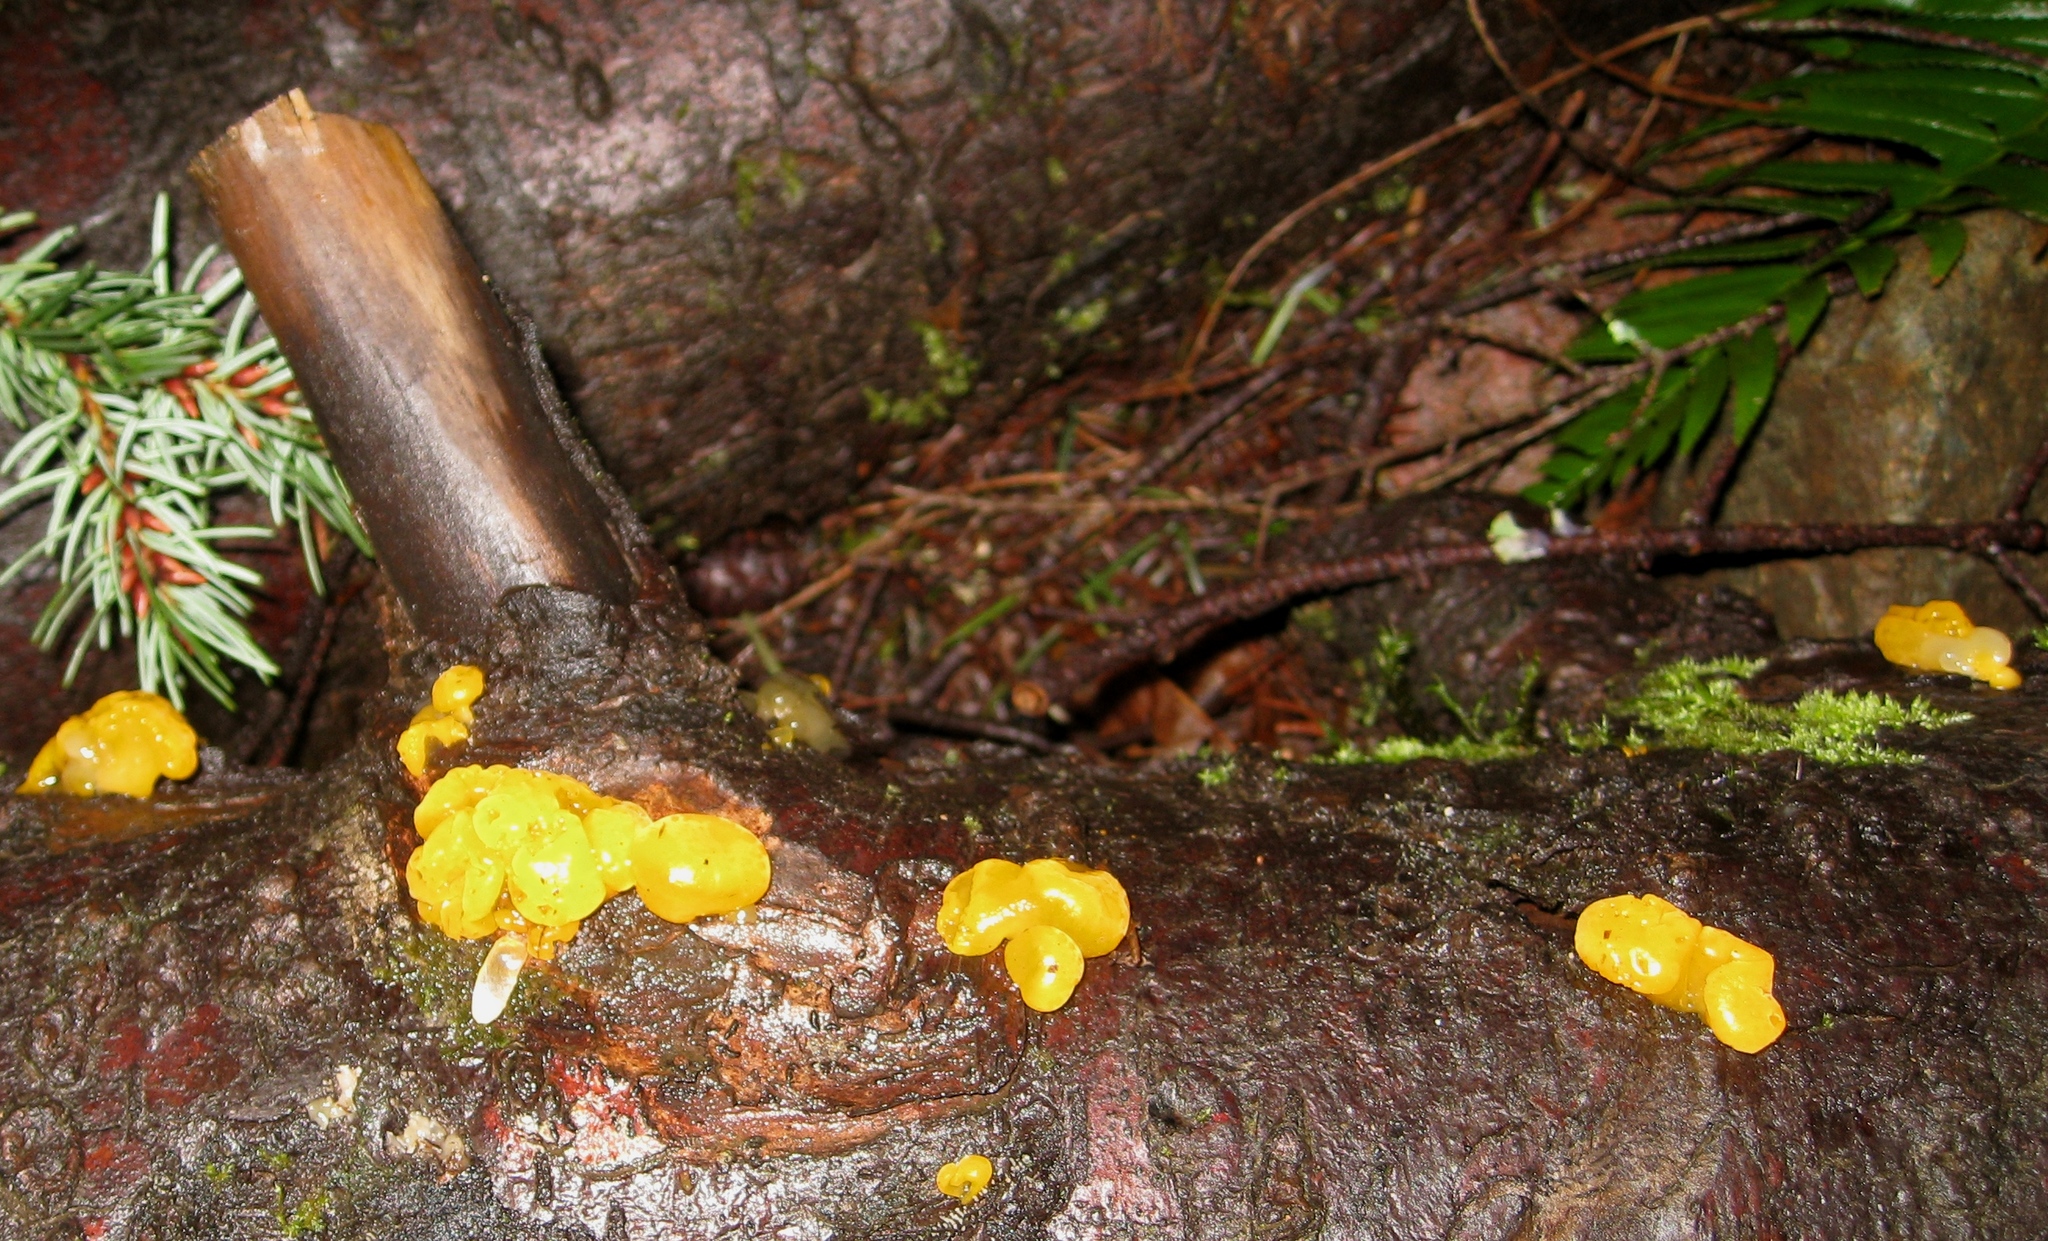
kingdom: Fungi
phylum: Basidiomycota
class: Dacrymycetes
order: Dacrymycetales
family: Dacrymycetaceae
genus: Dacrymyces
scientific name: Dacrymyces chrysospermus
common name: Orange jelly spot
